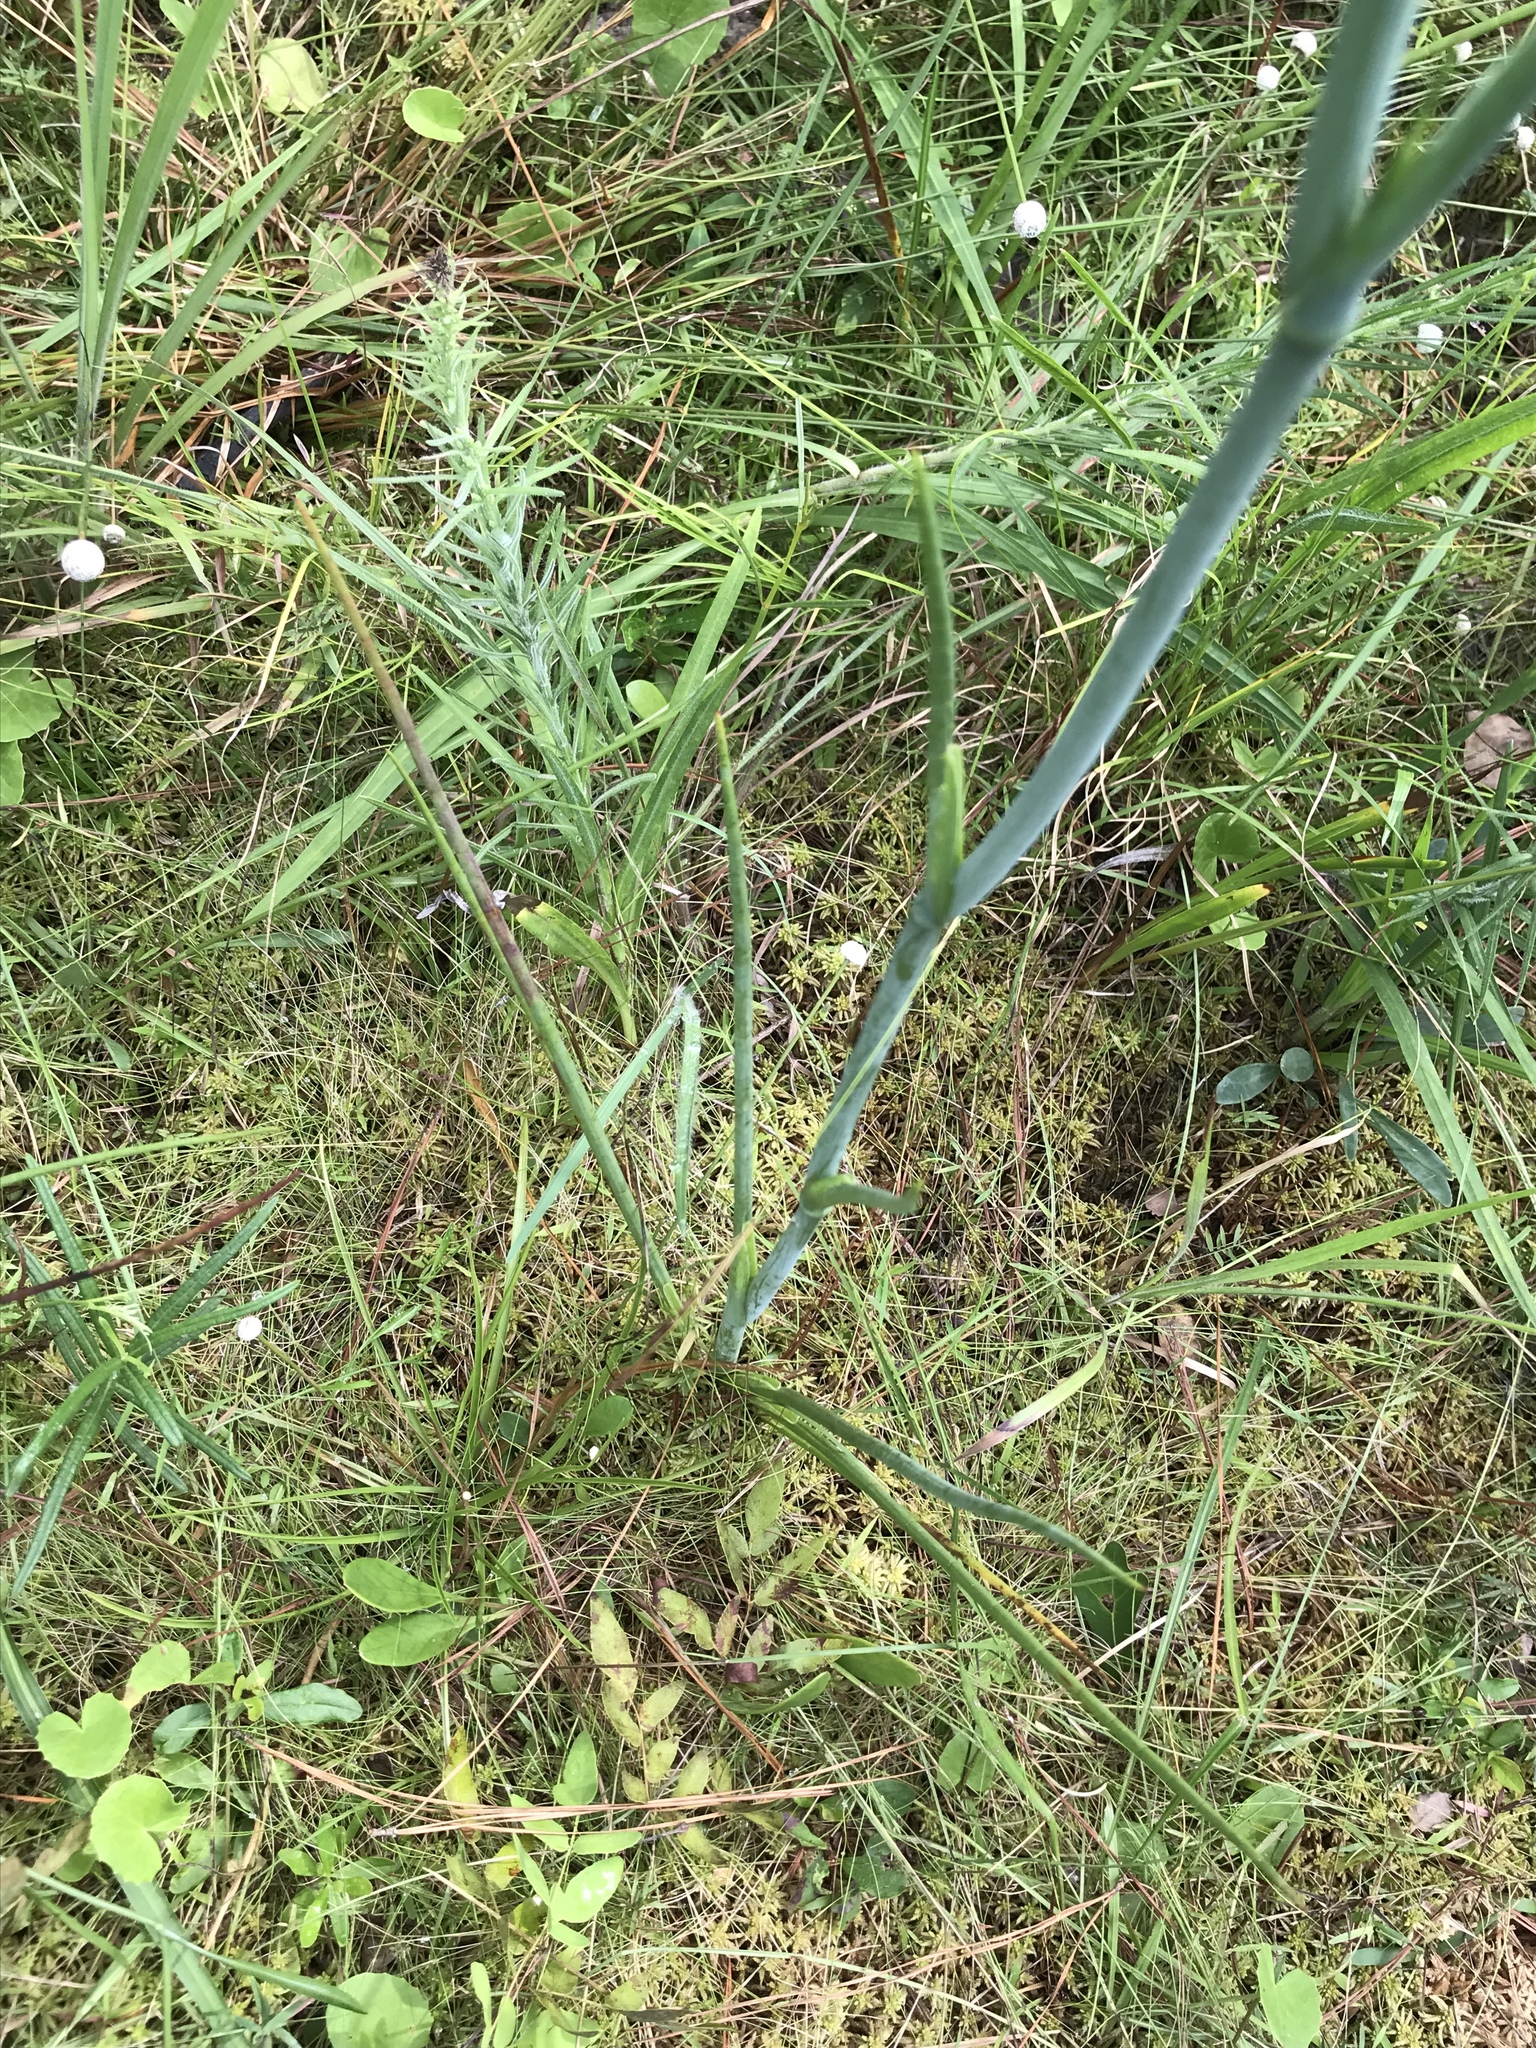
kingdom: Plantae
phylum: Tracheophyta
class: Magnoliopsida
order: Apiales
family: Apiaceae
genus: Tiedemannia
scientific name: Tiedemannia filiformis
